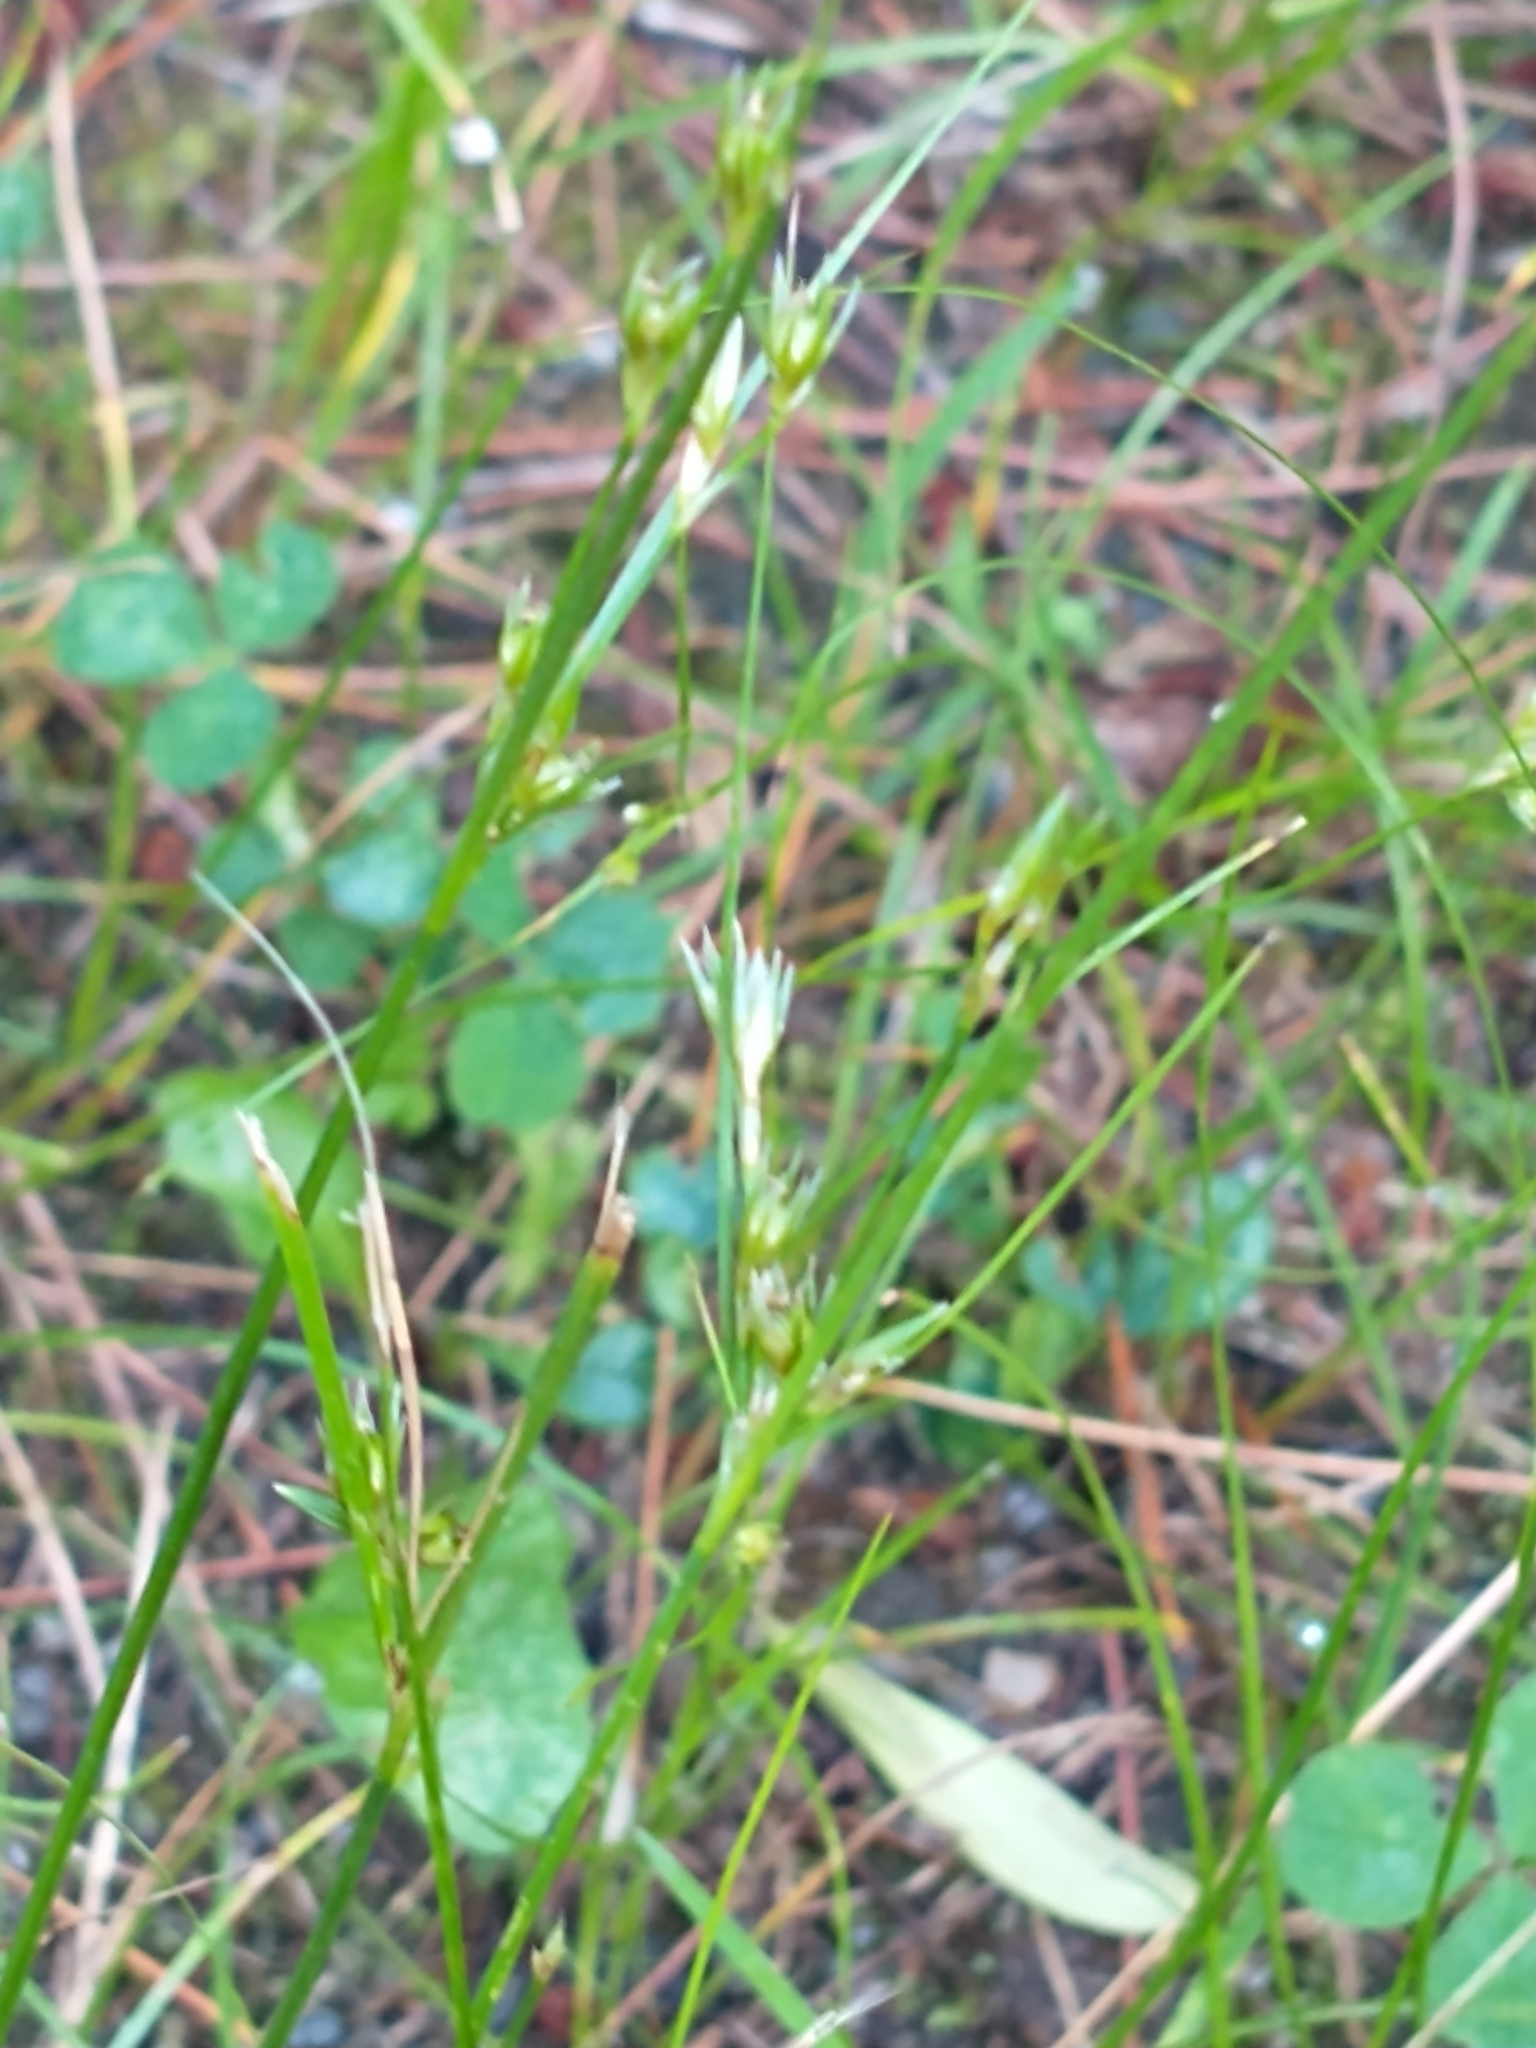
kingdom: Plantae
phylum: Tracheophyta
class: Liliopsida
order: Poales
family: Juncaceae
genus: Juncus
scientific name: Juncus tenuis
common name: Slender rush
